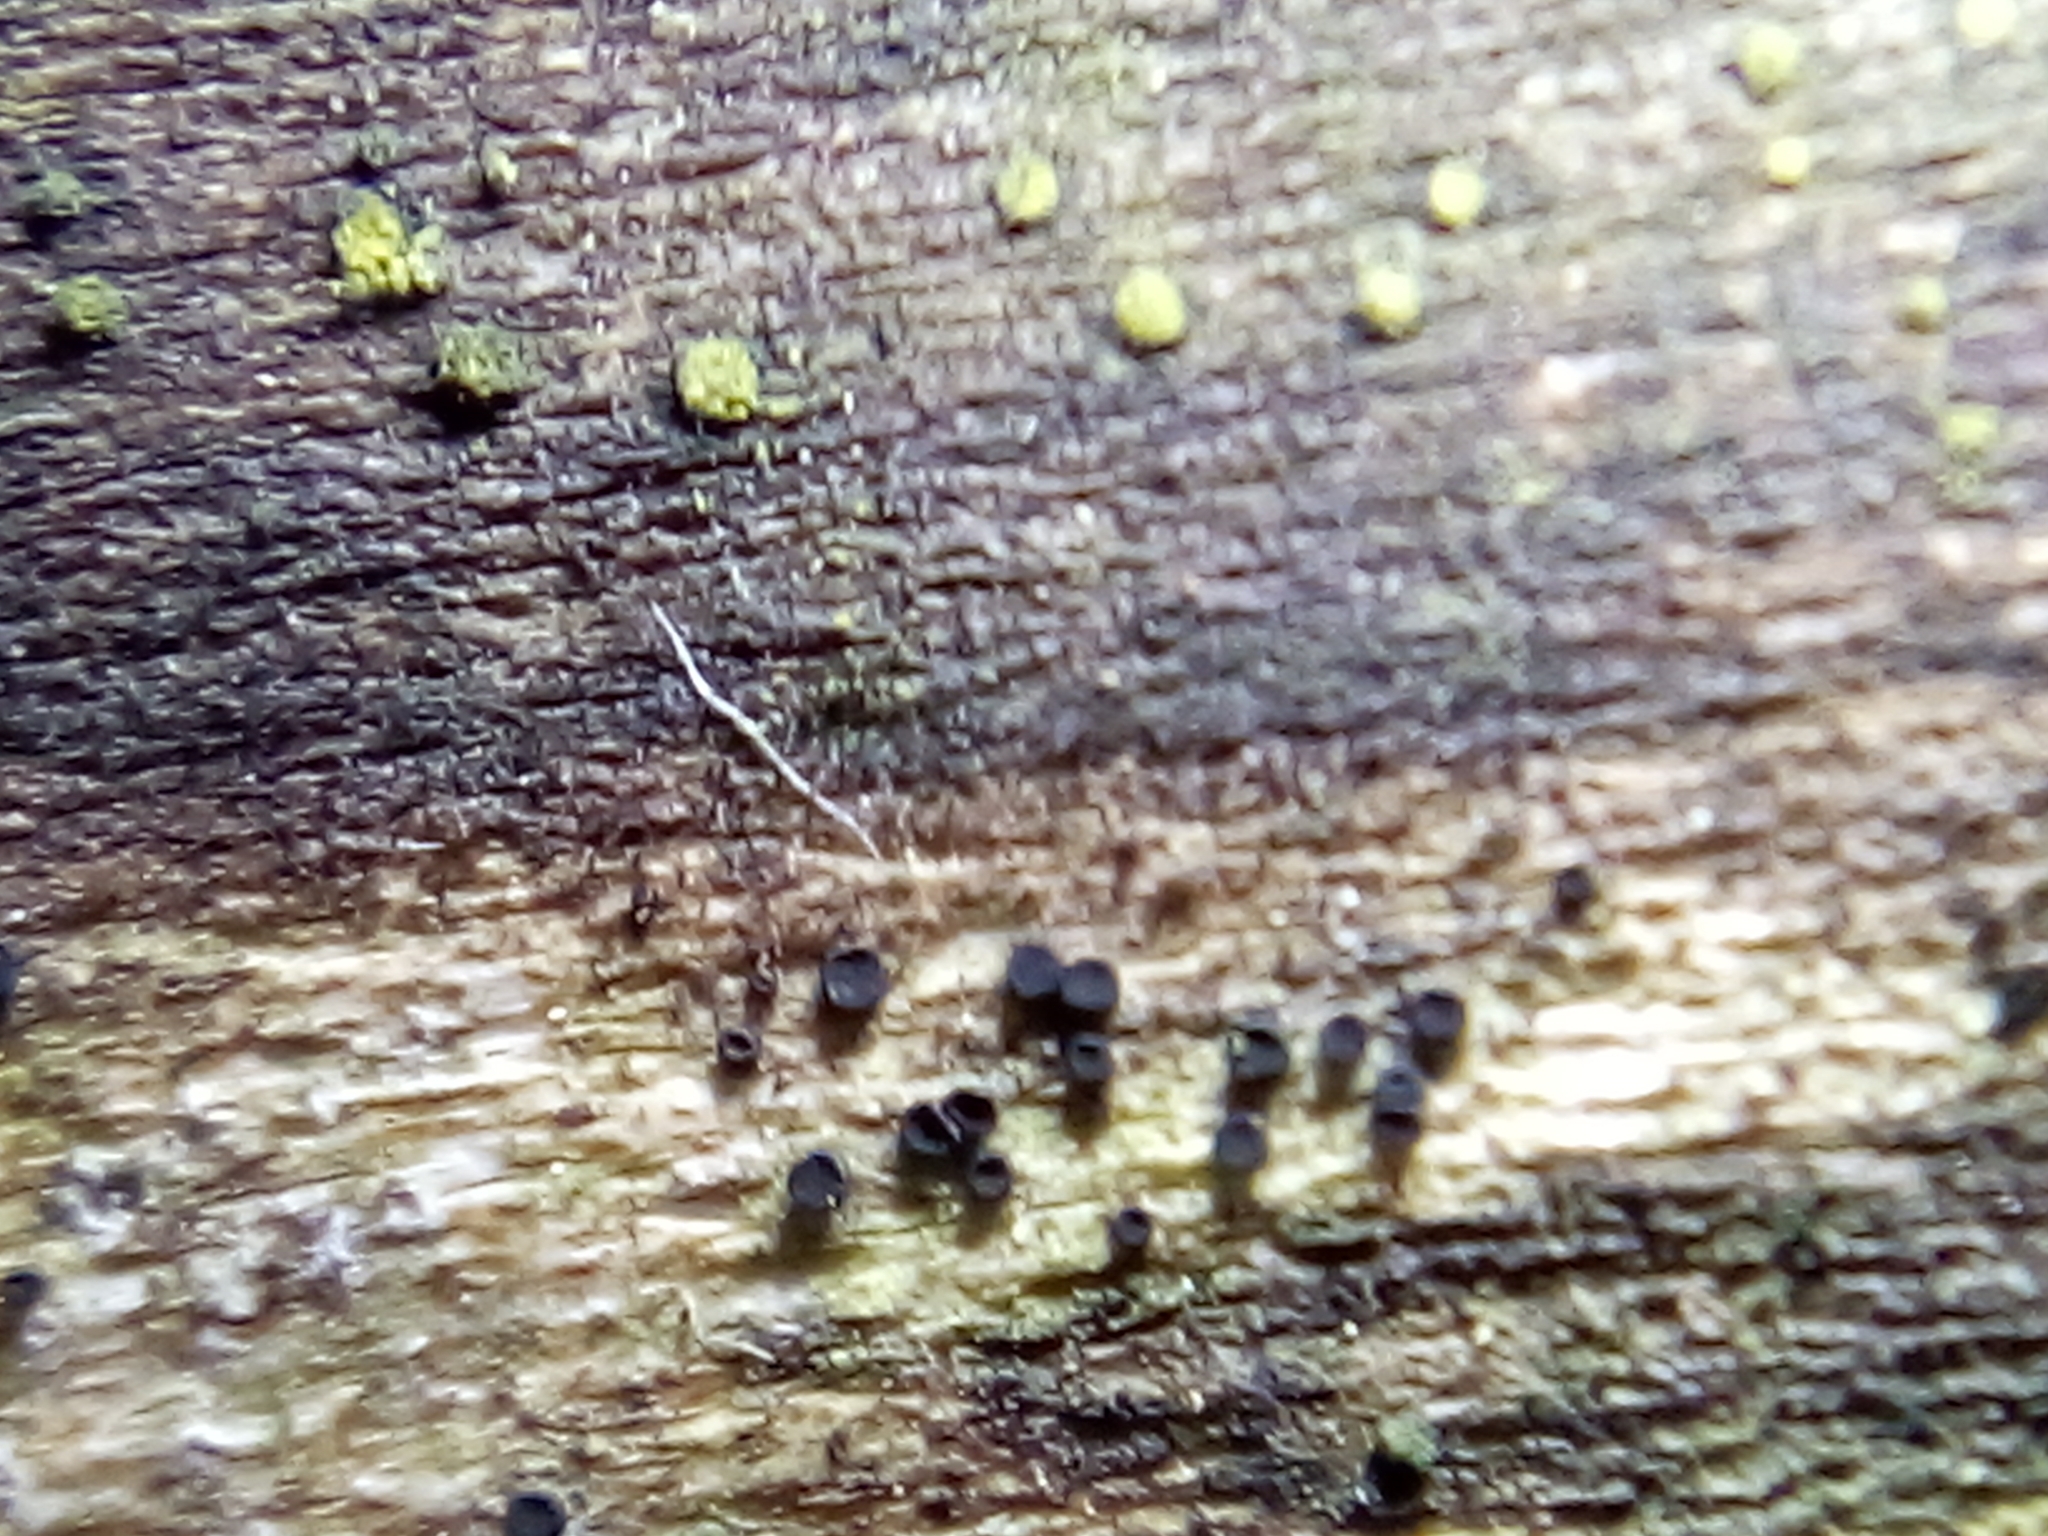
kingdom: Fungi
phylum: Ascomycota
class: Dothideomycetes
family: Rhizodiscinaceae
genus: Rhizodiscina
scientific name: Rhizodiscina lignyota
